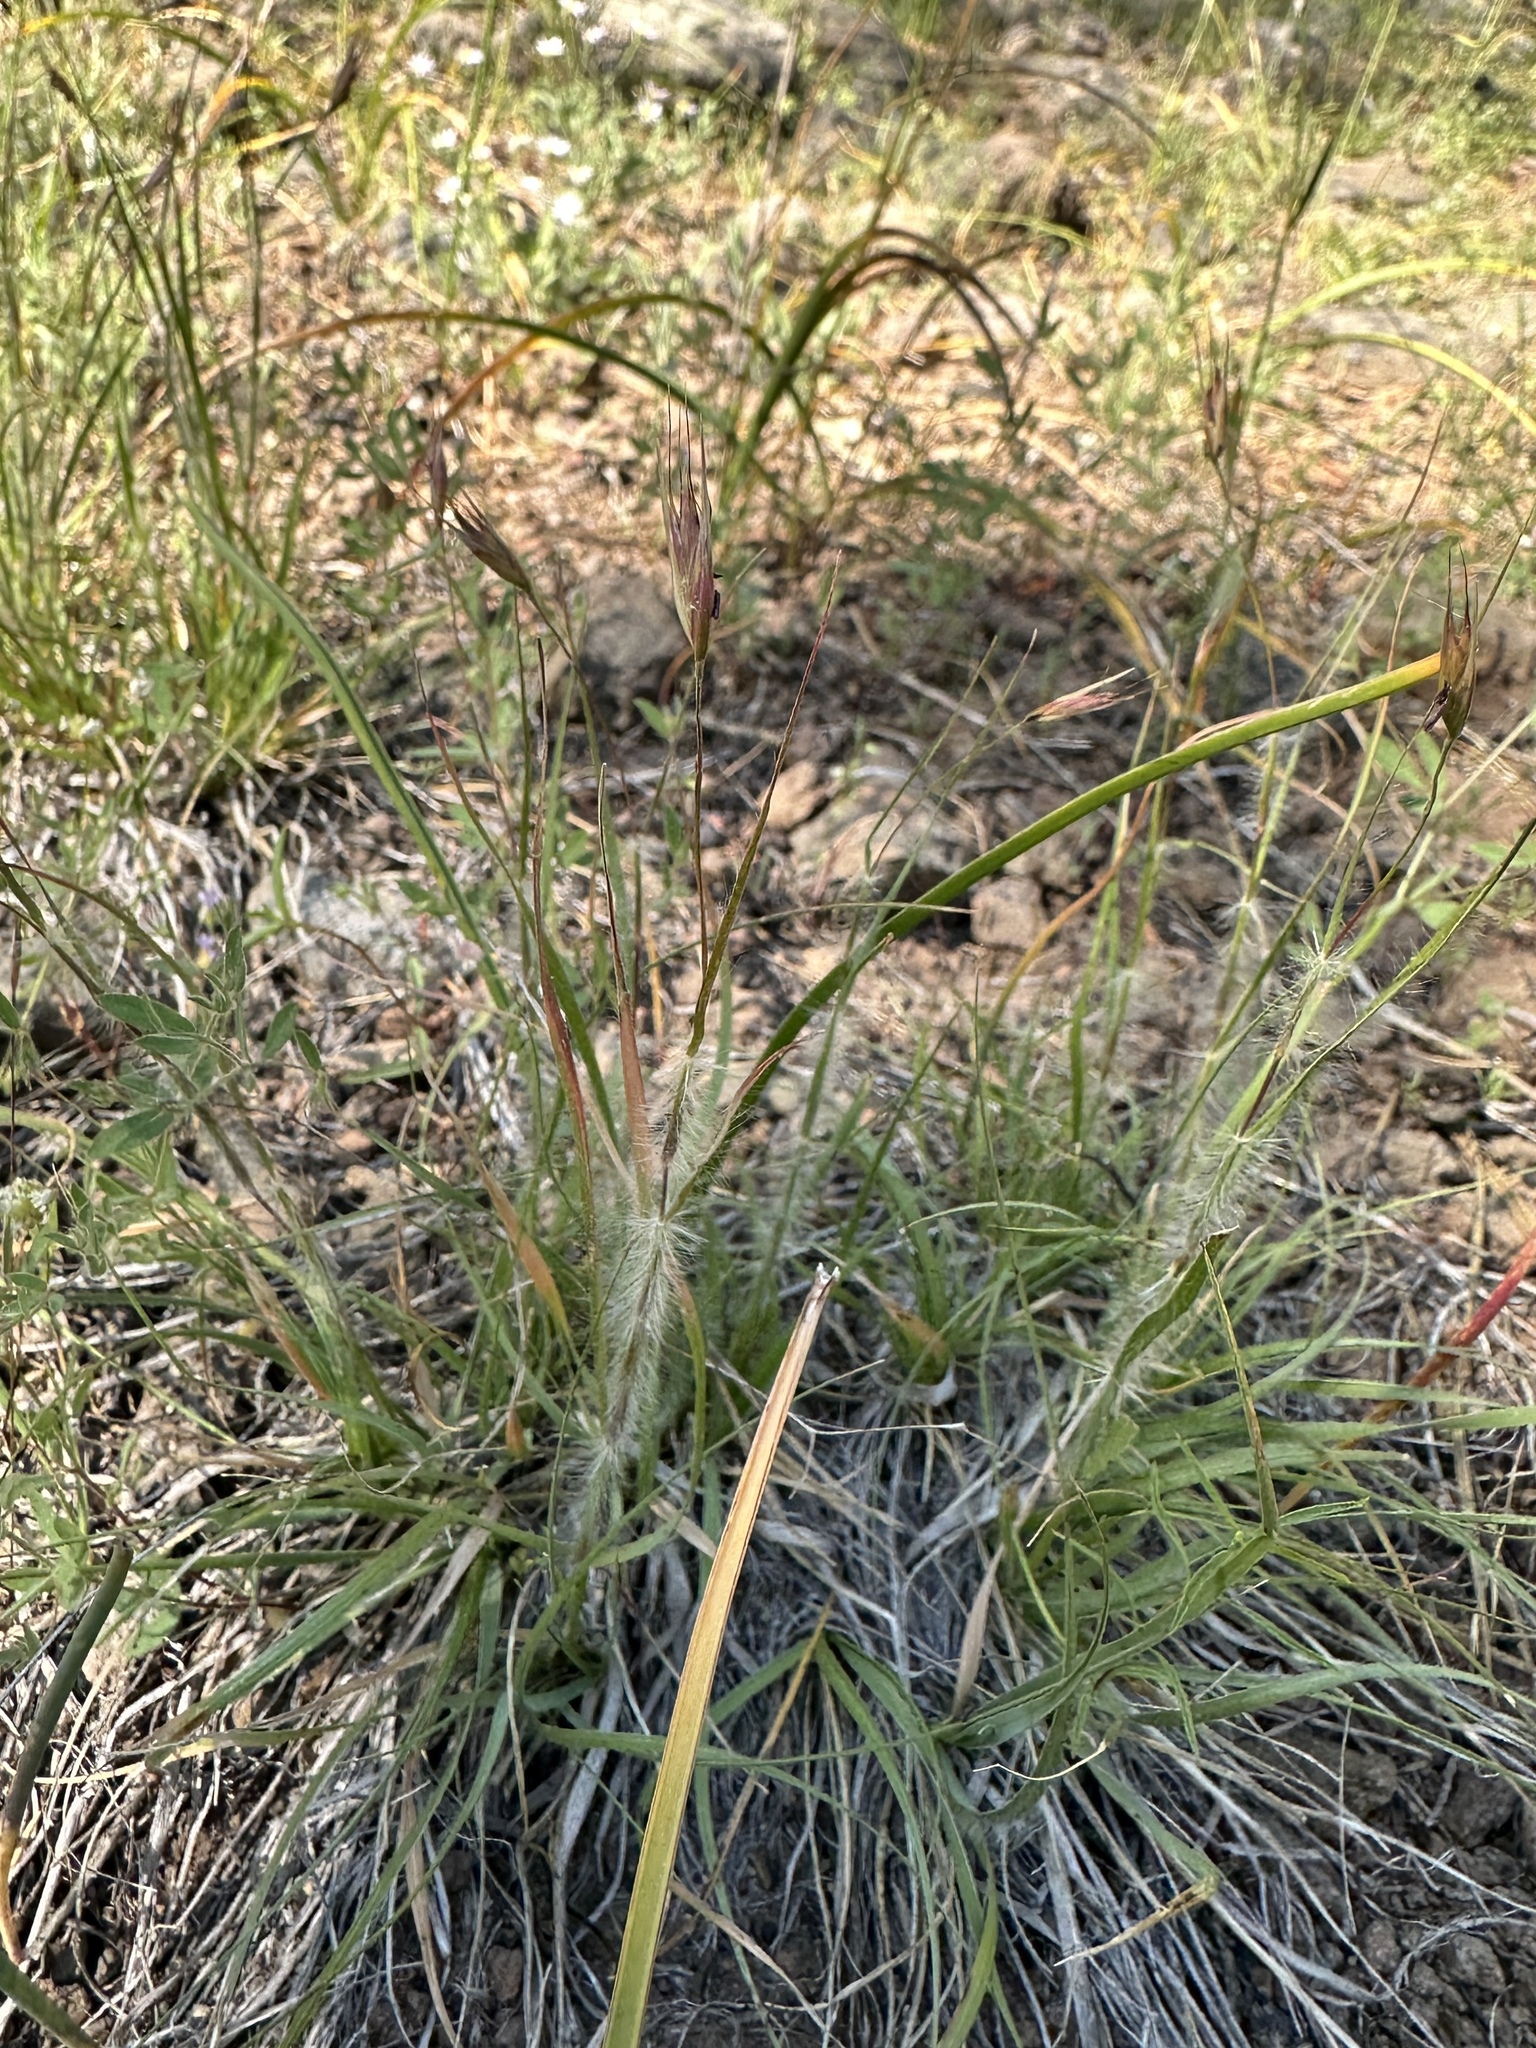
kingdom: Plantae
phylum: Tracheophyta
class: Liliopsida
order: Poales
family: Poaceae
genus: Danthonia
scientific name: Danthonia unispicata
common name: Few-flowered oatgrass
